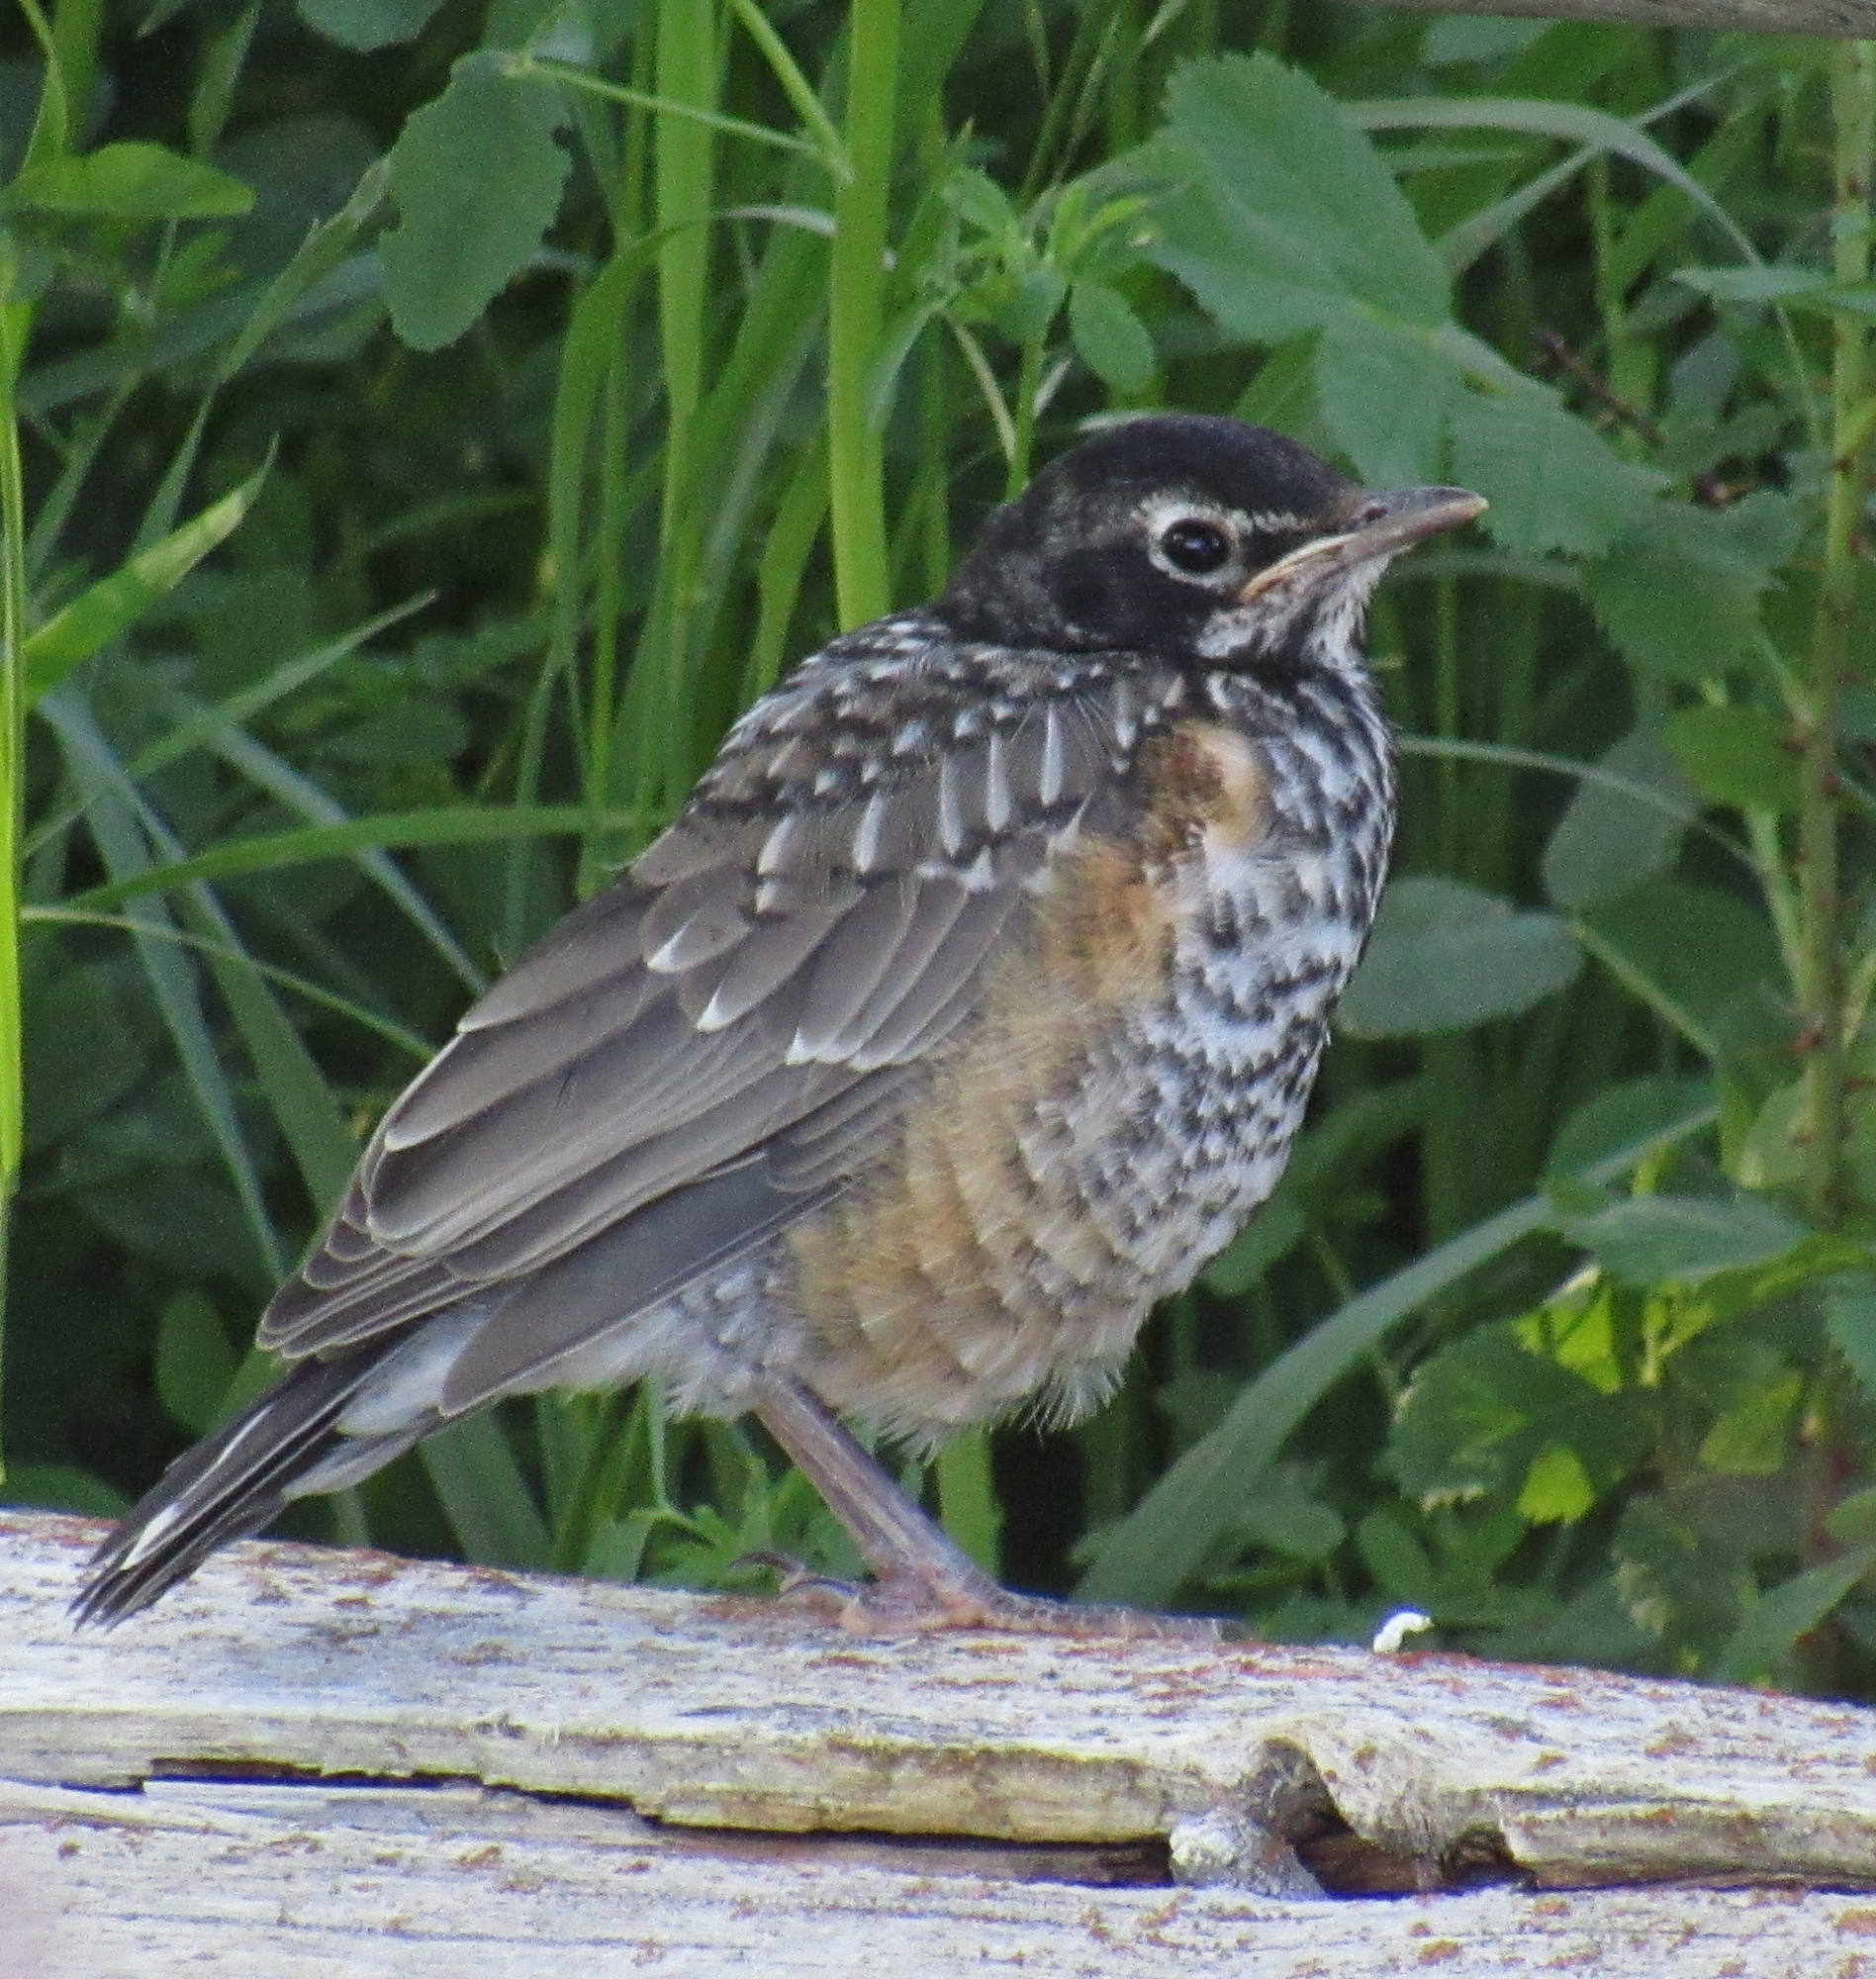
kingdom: Animalia
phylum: Chordata
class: Aves
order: Passeriformes
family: Turdidae
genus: Turdus
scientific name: Turdus migratorius
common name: American robin
